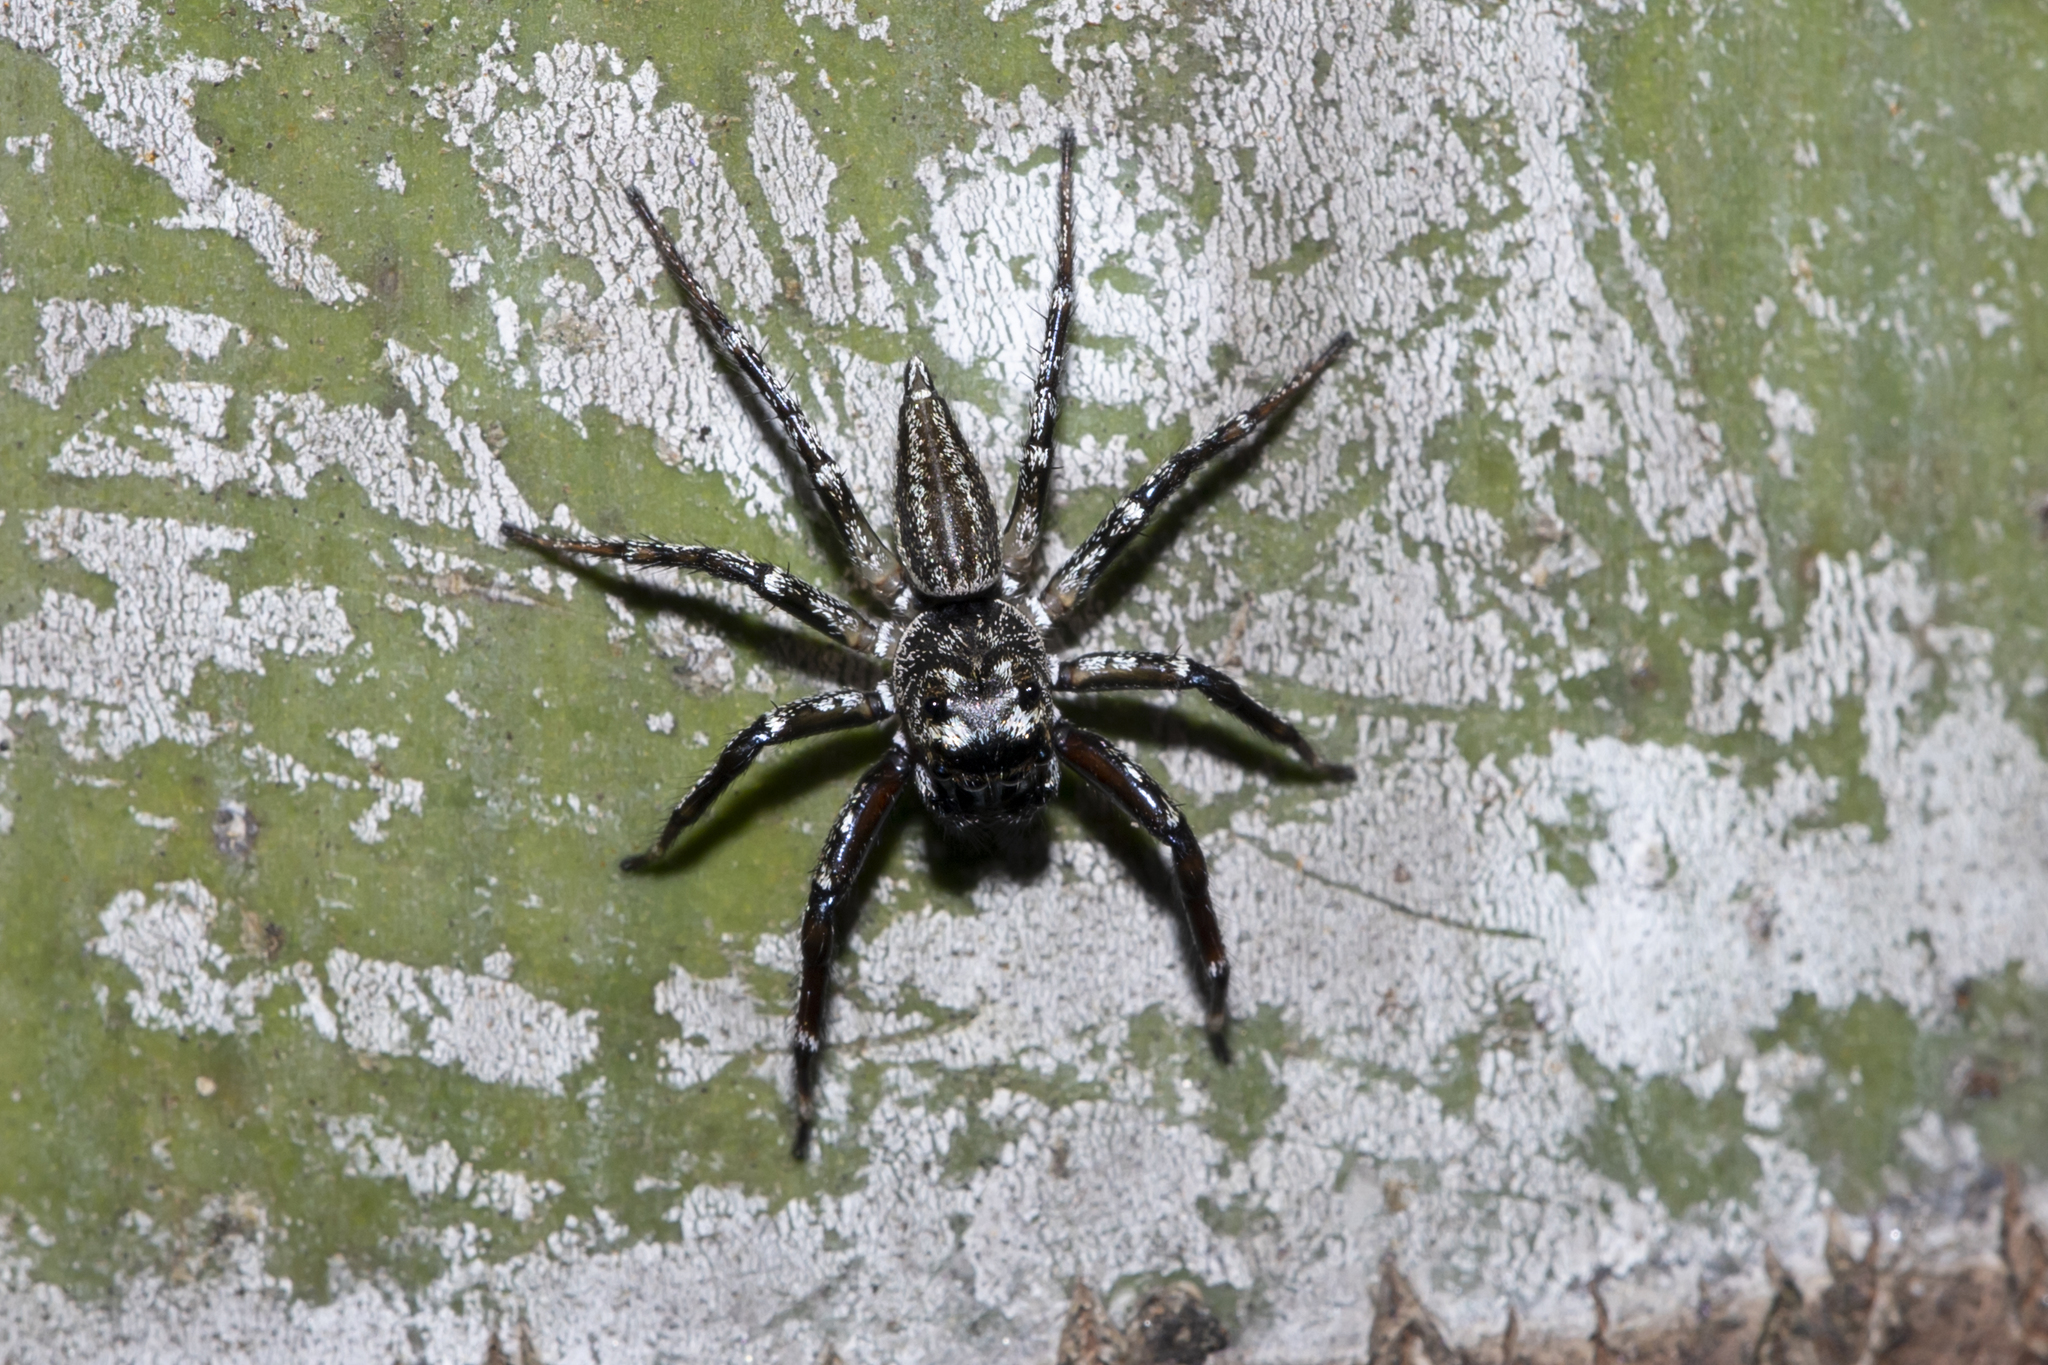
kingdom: Animalia
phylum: Arthropoda
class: Arachnida
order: Araneae
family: Salticidae
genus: Zenodorus
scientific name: Zenodorus swiftorum
